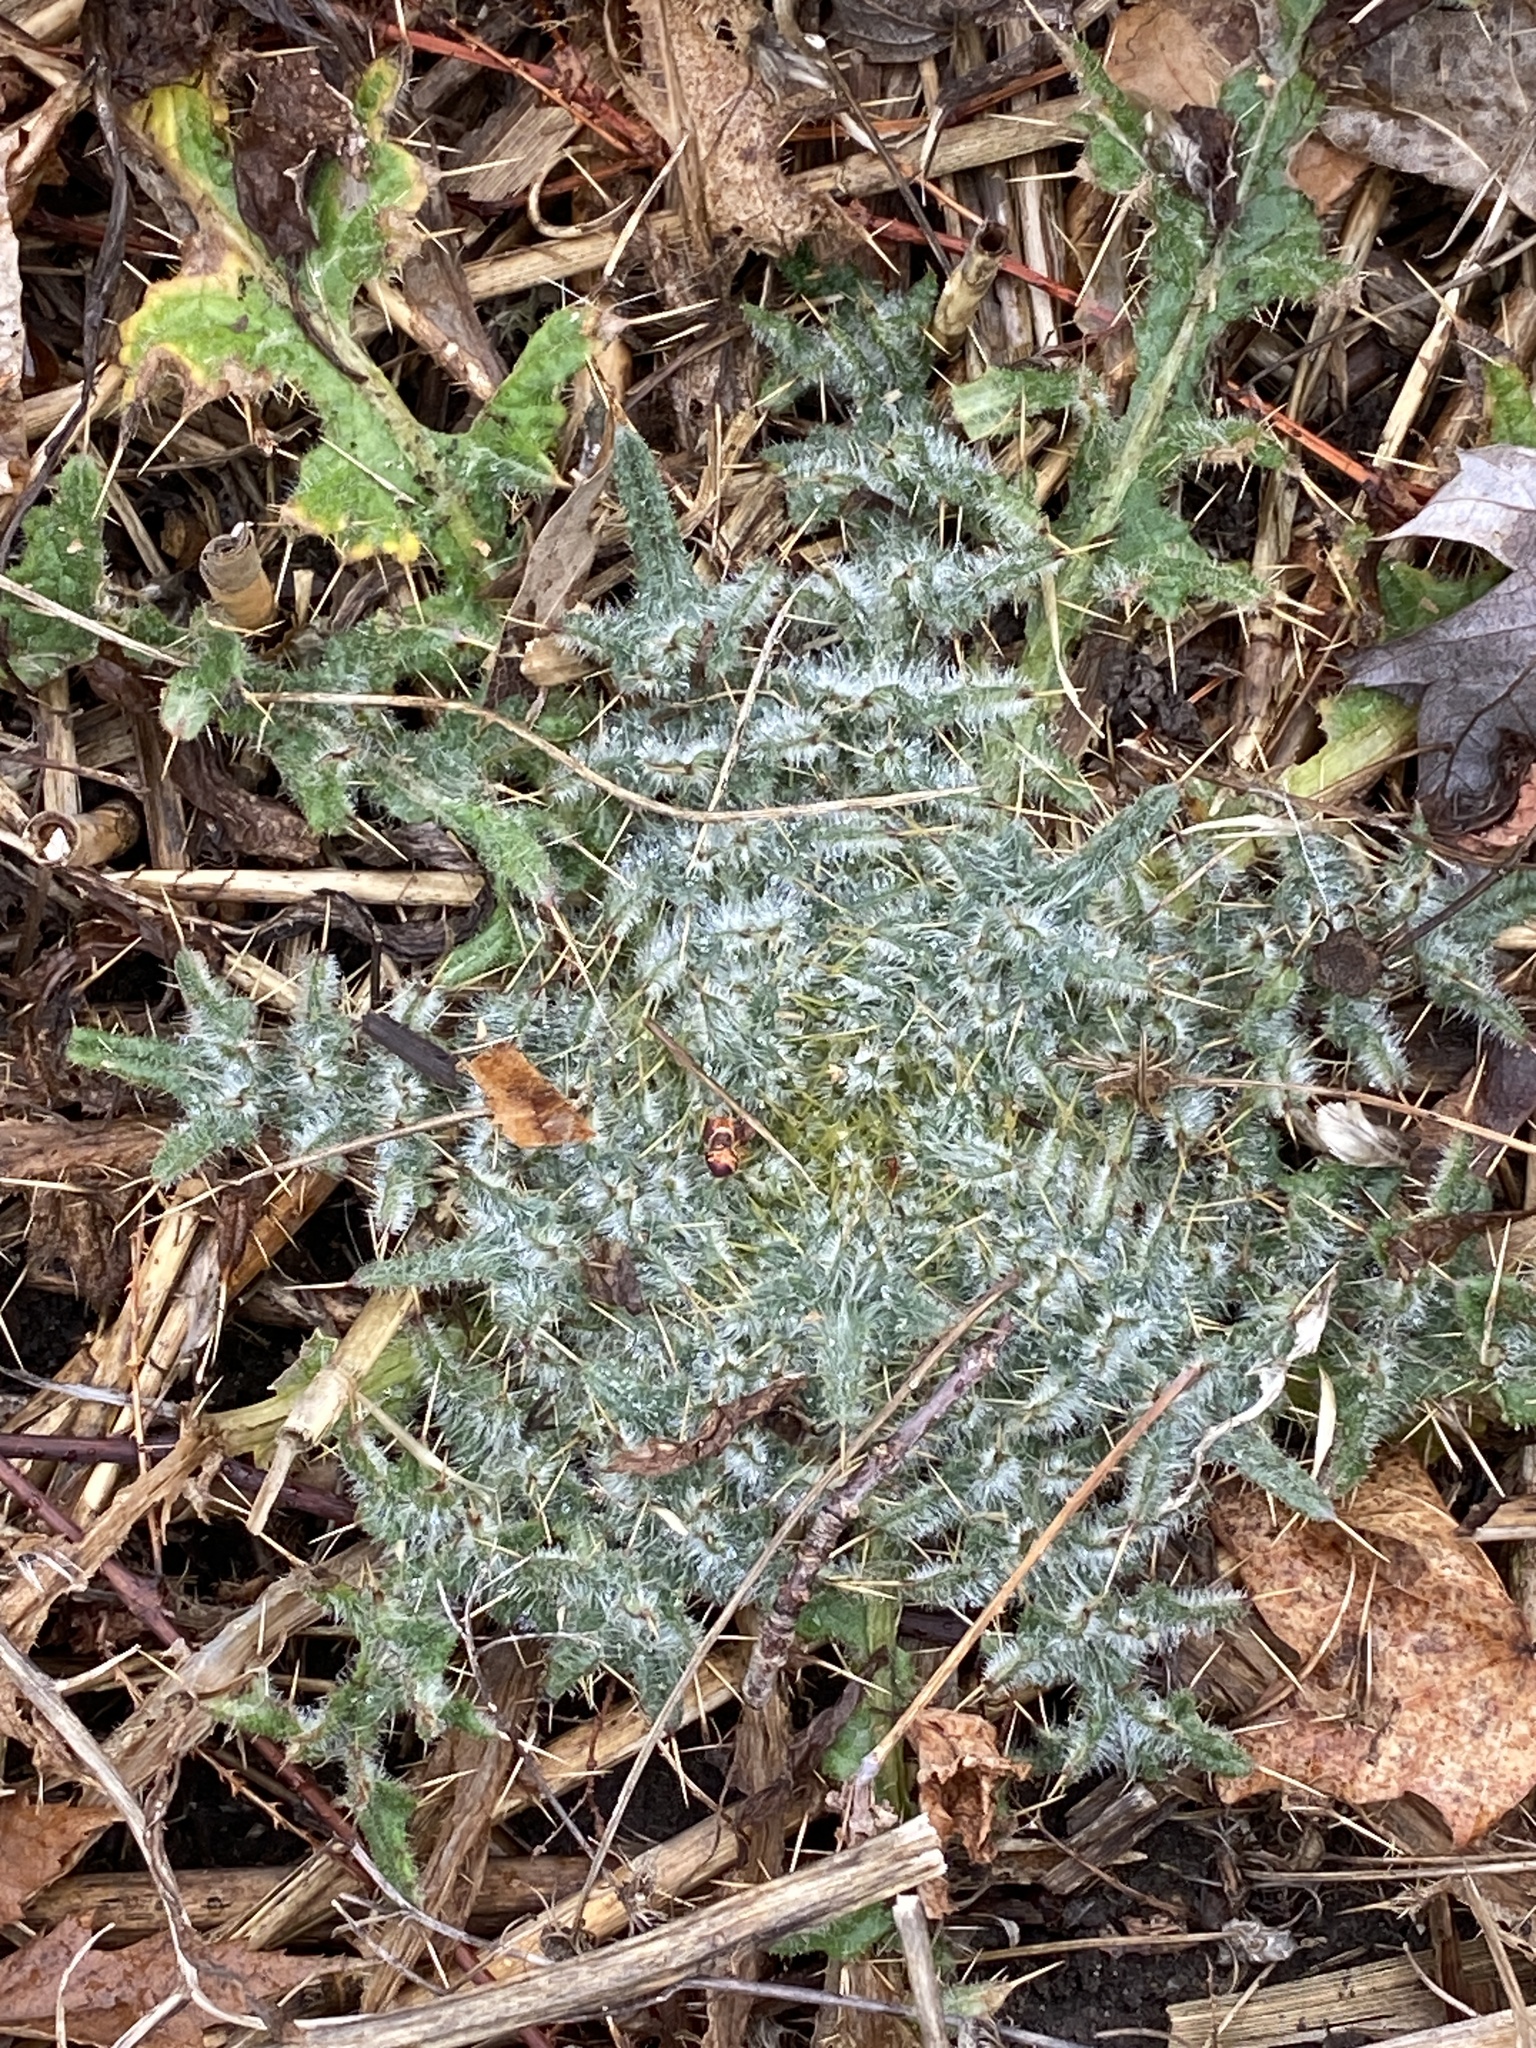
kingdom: Plantae
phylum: Tracheophyta
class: Magnoliopsida
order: Asterales
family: Asteraceae
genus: Cirsium
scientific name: Cirsium vulgare
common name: Bull thistle
